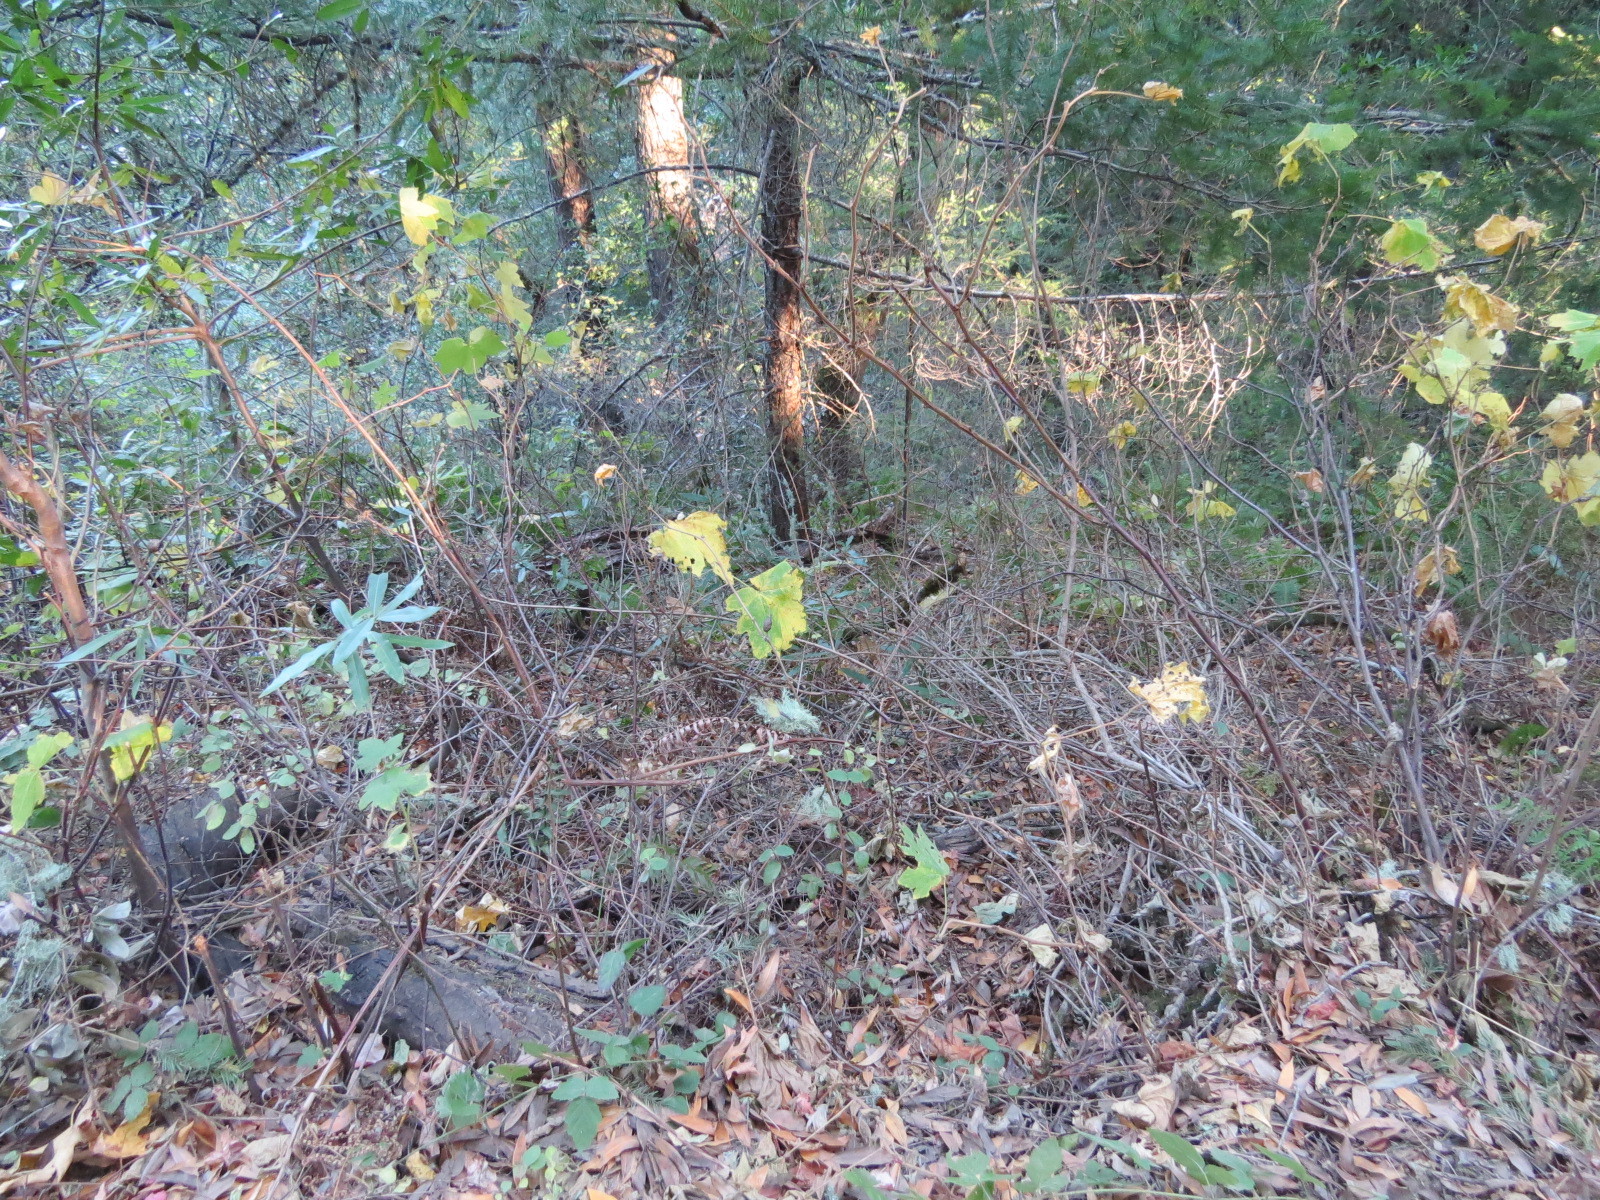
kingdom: Animalia
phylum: Arthropoda
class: Insecta
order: Hymenoptera
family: Cynipidae
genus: Diastrophus
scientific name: Diastrophus
